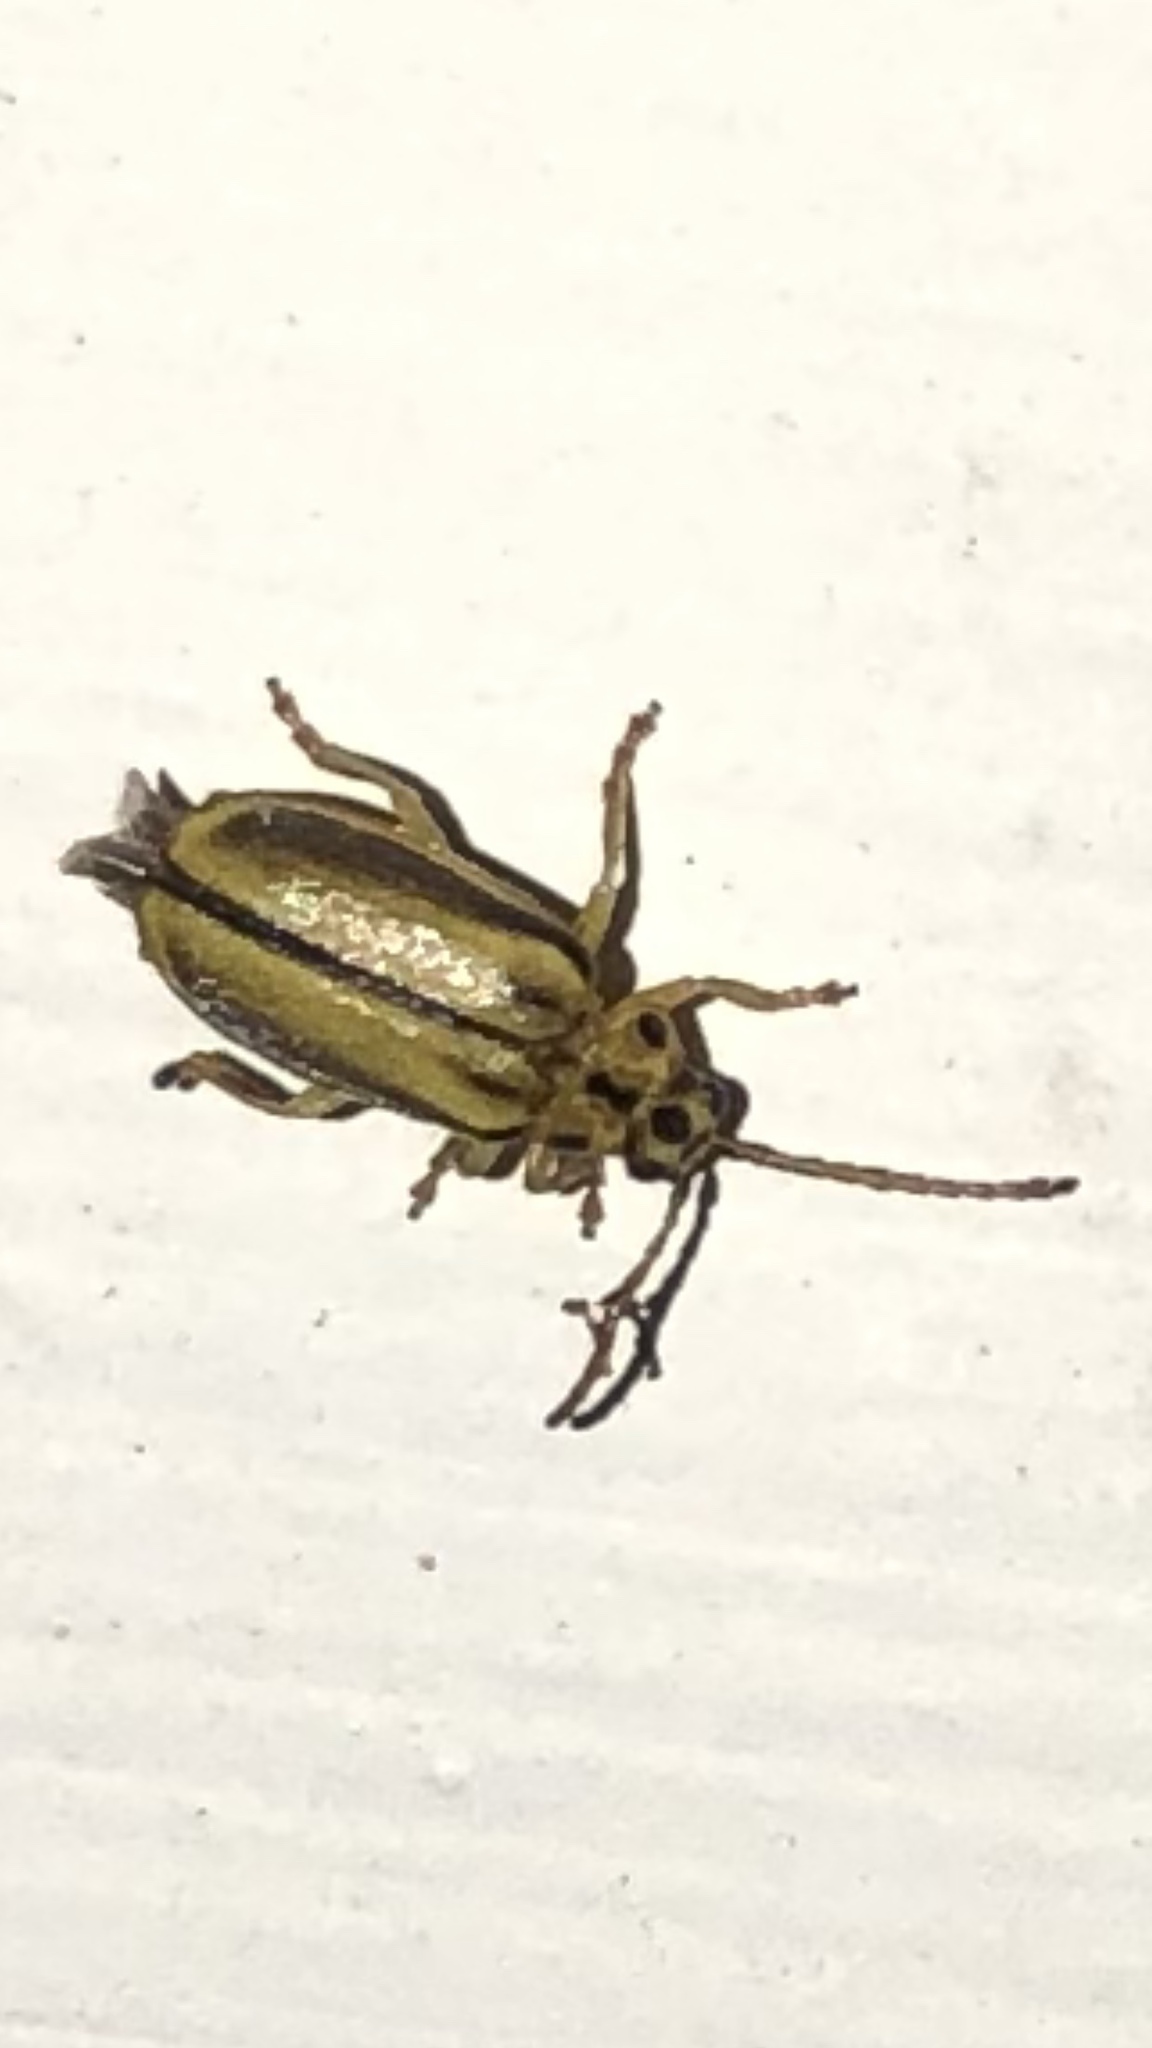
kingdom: Animalia
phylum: Arthropoda
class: Insecta
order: Coleoptera
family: Chrysomelidae
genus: Xanthogaleruca
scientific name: Xanthogaleruca luteola
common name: Elm leaf beetle
